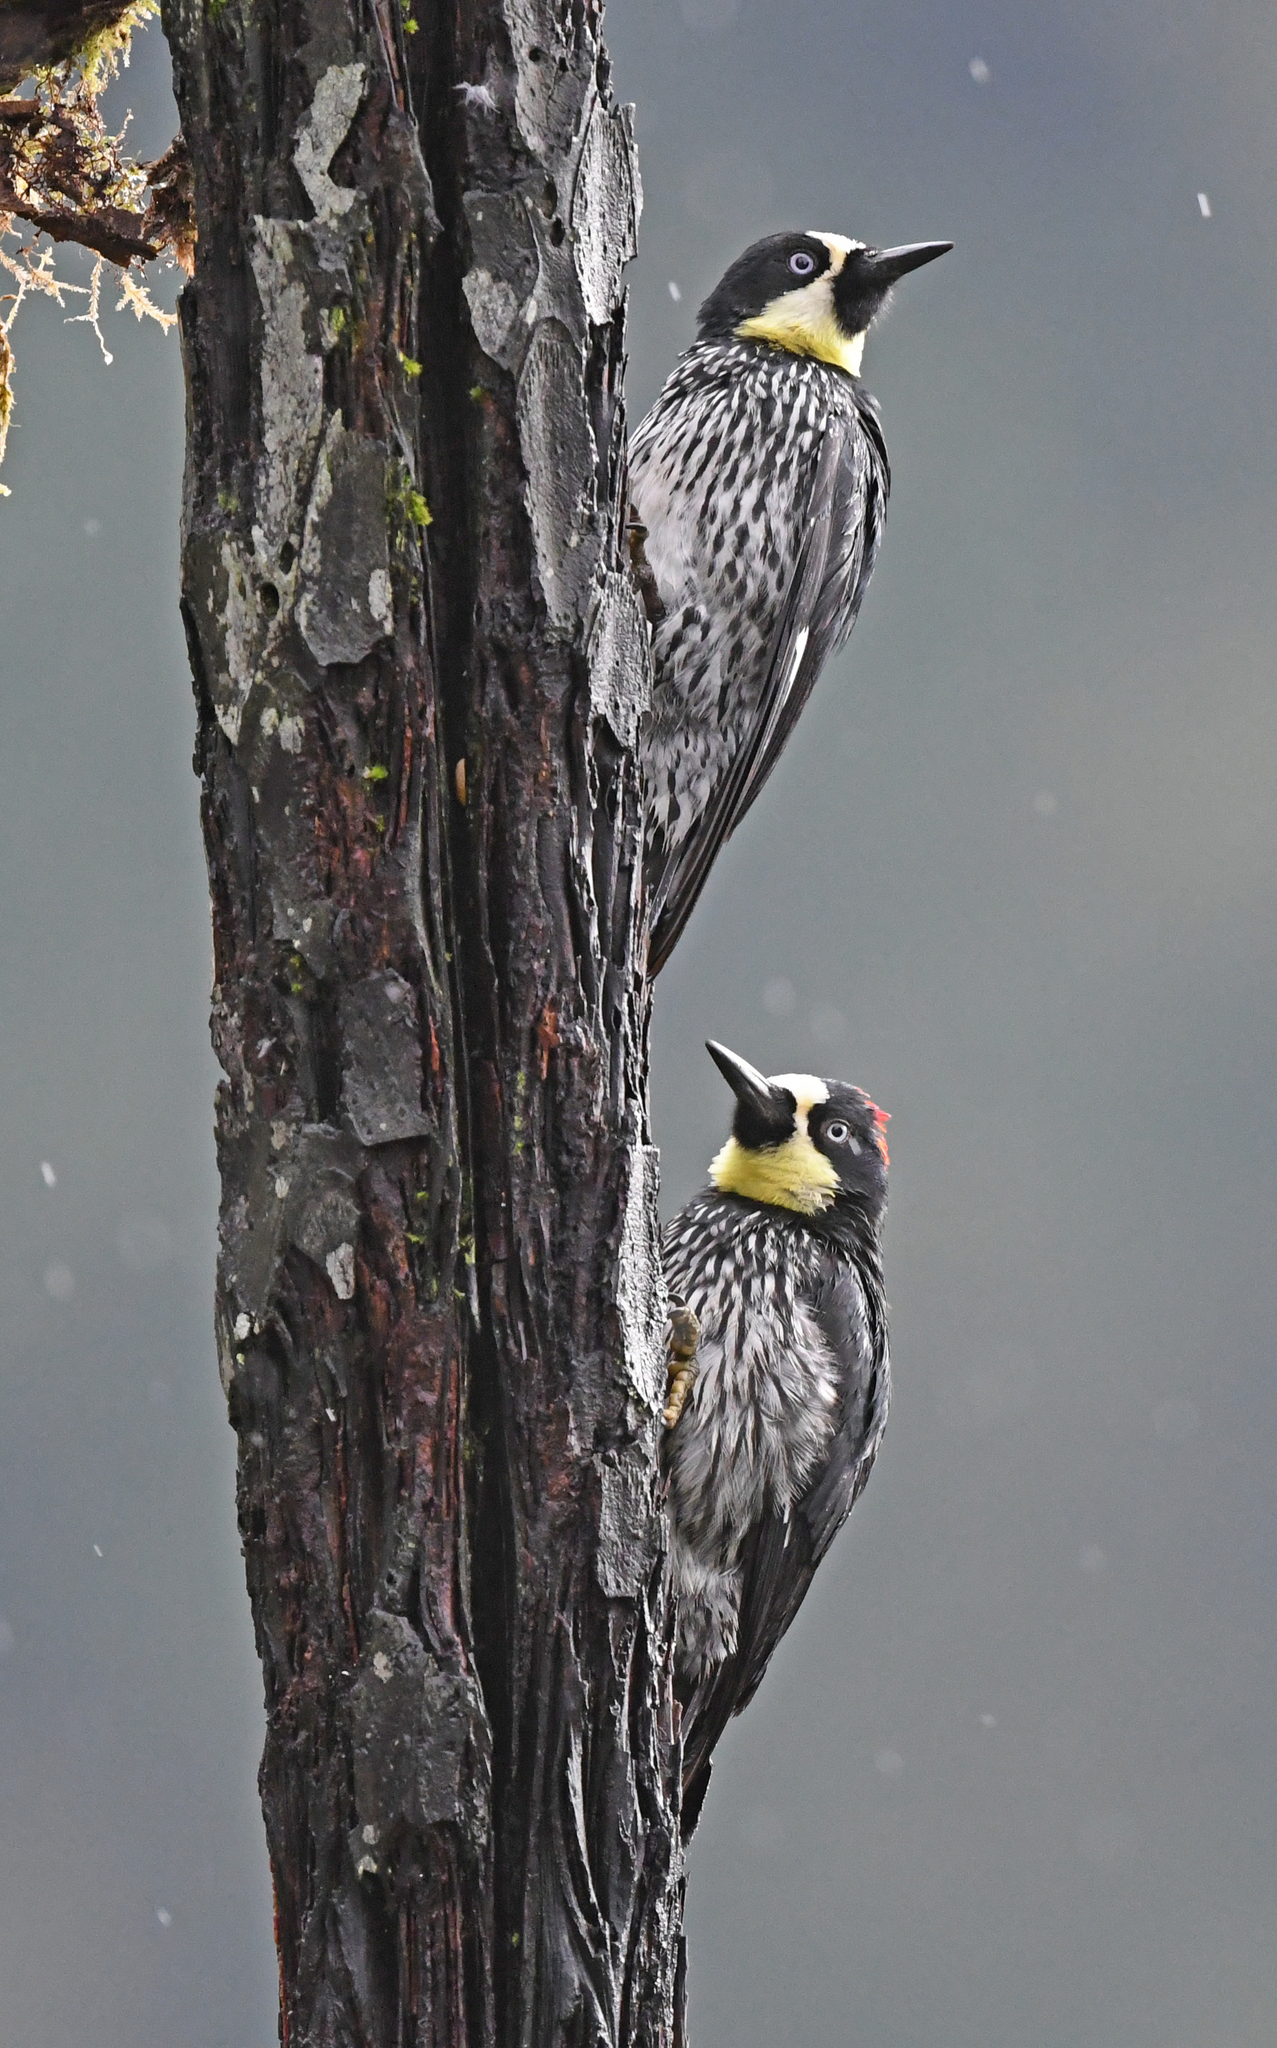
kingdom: Animalia
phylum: Chordata
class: Aves
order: Piciformes
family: Picidae
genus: Melanerpes
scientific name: Melanerpes formicivorus
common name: Acorn woodpecker
